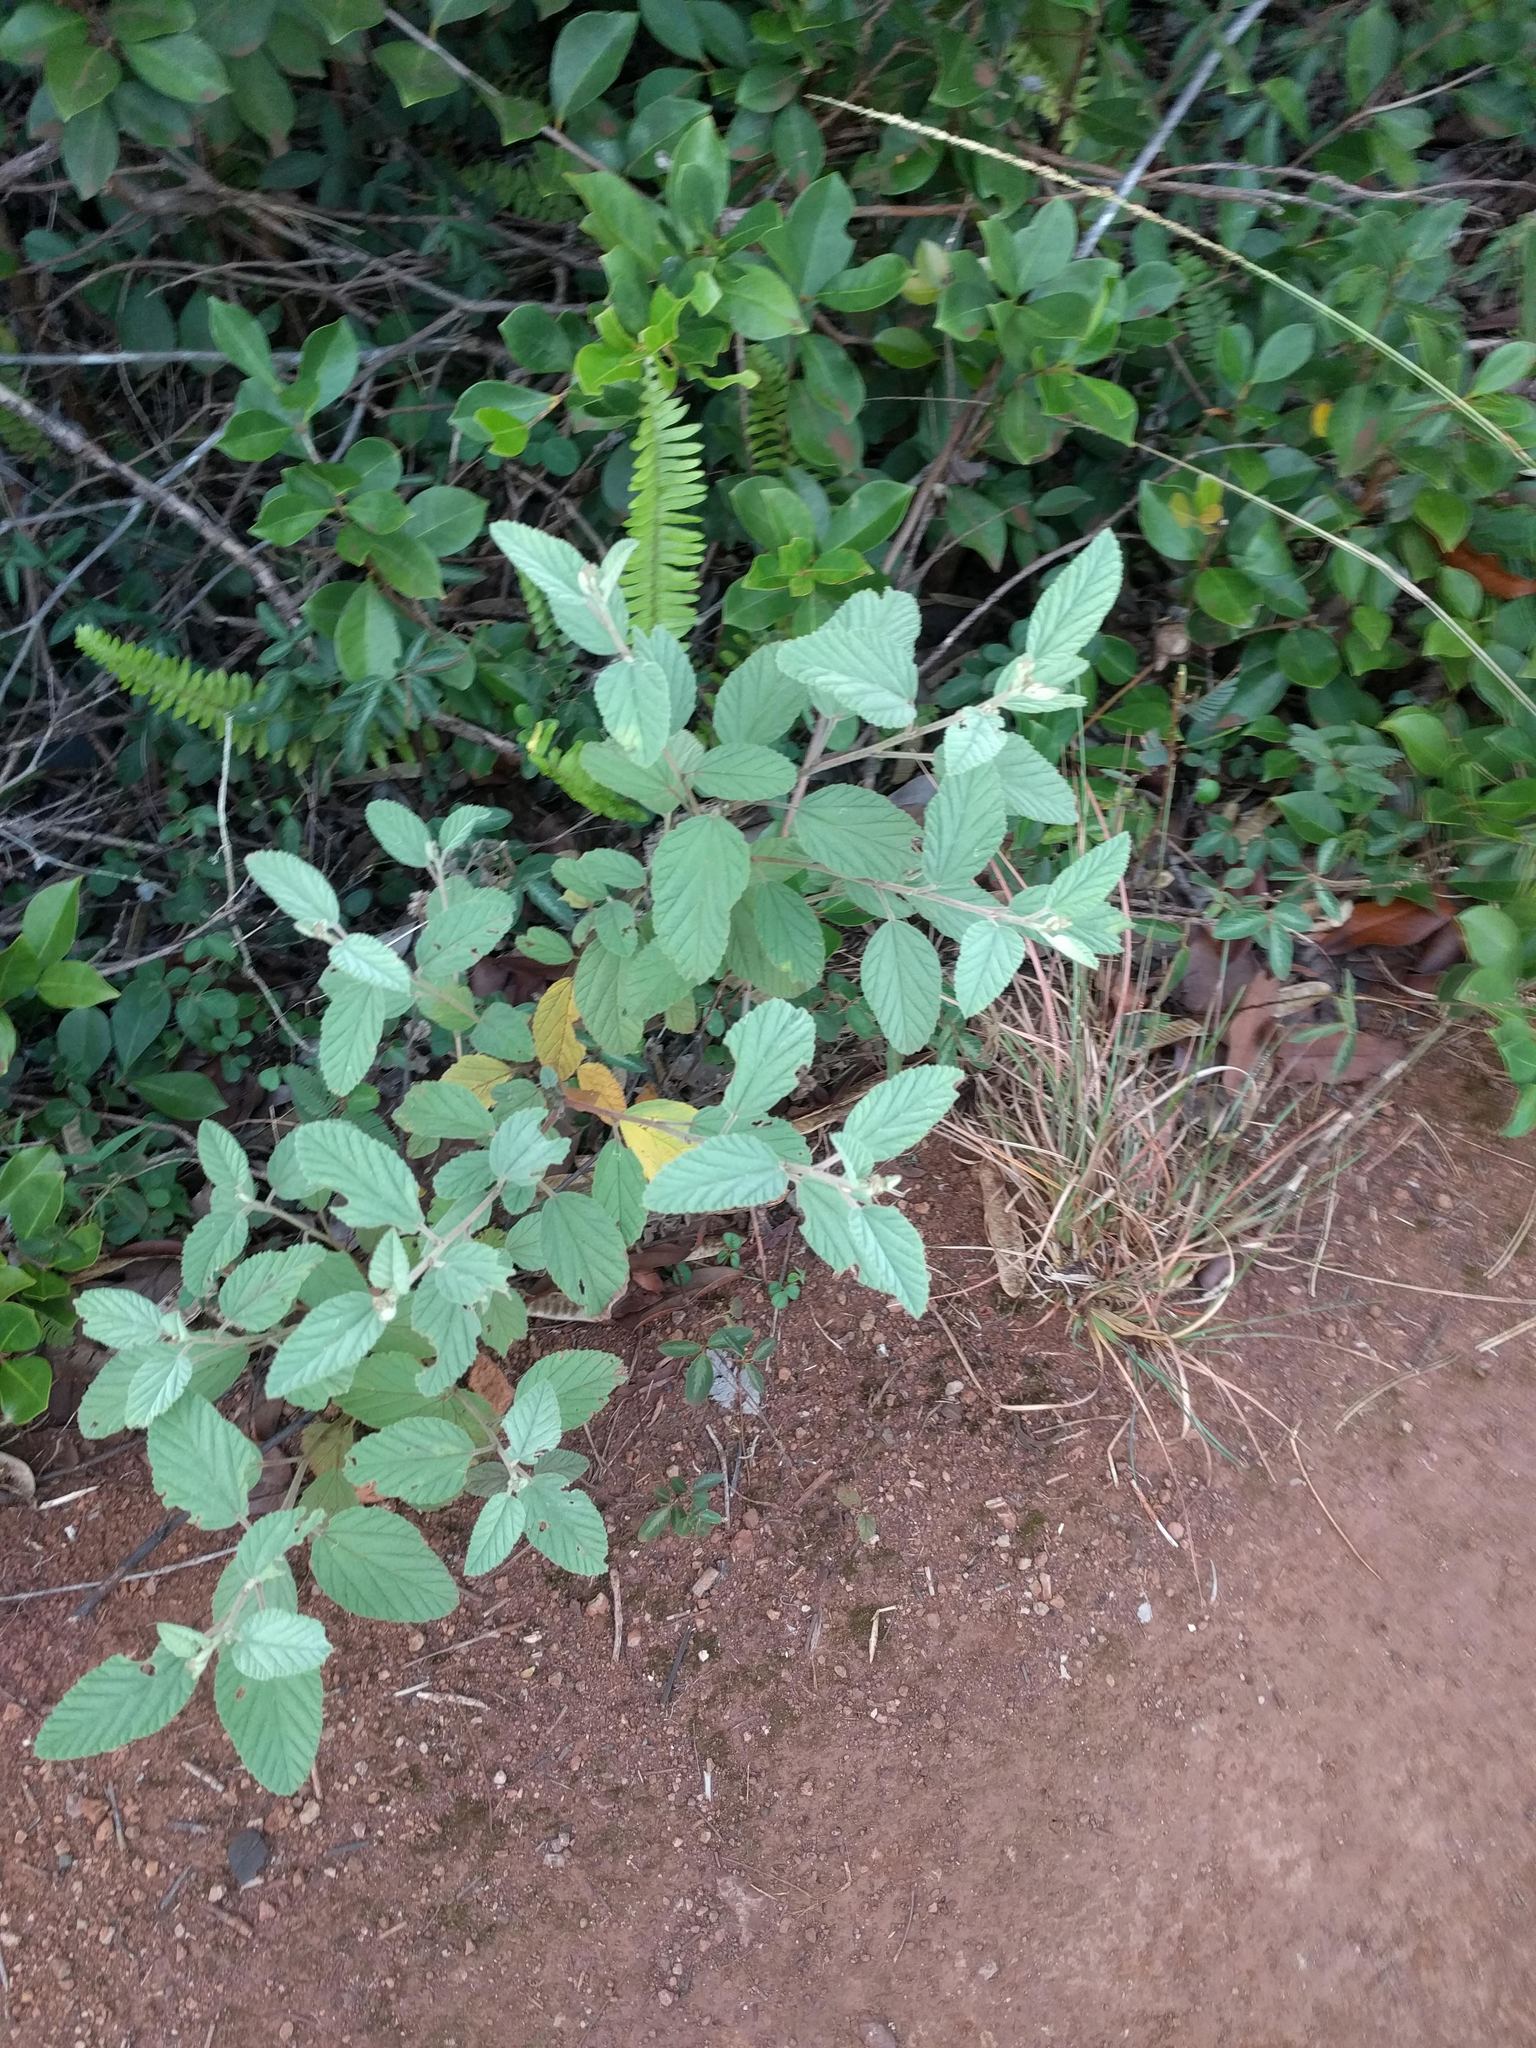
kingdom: Plantae
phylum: Tracheophyta
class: Magnoliopsida
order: Malvales
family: Malvaceae
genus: Waltheria
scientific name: Waltheria indica
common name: Leather-coat
